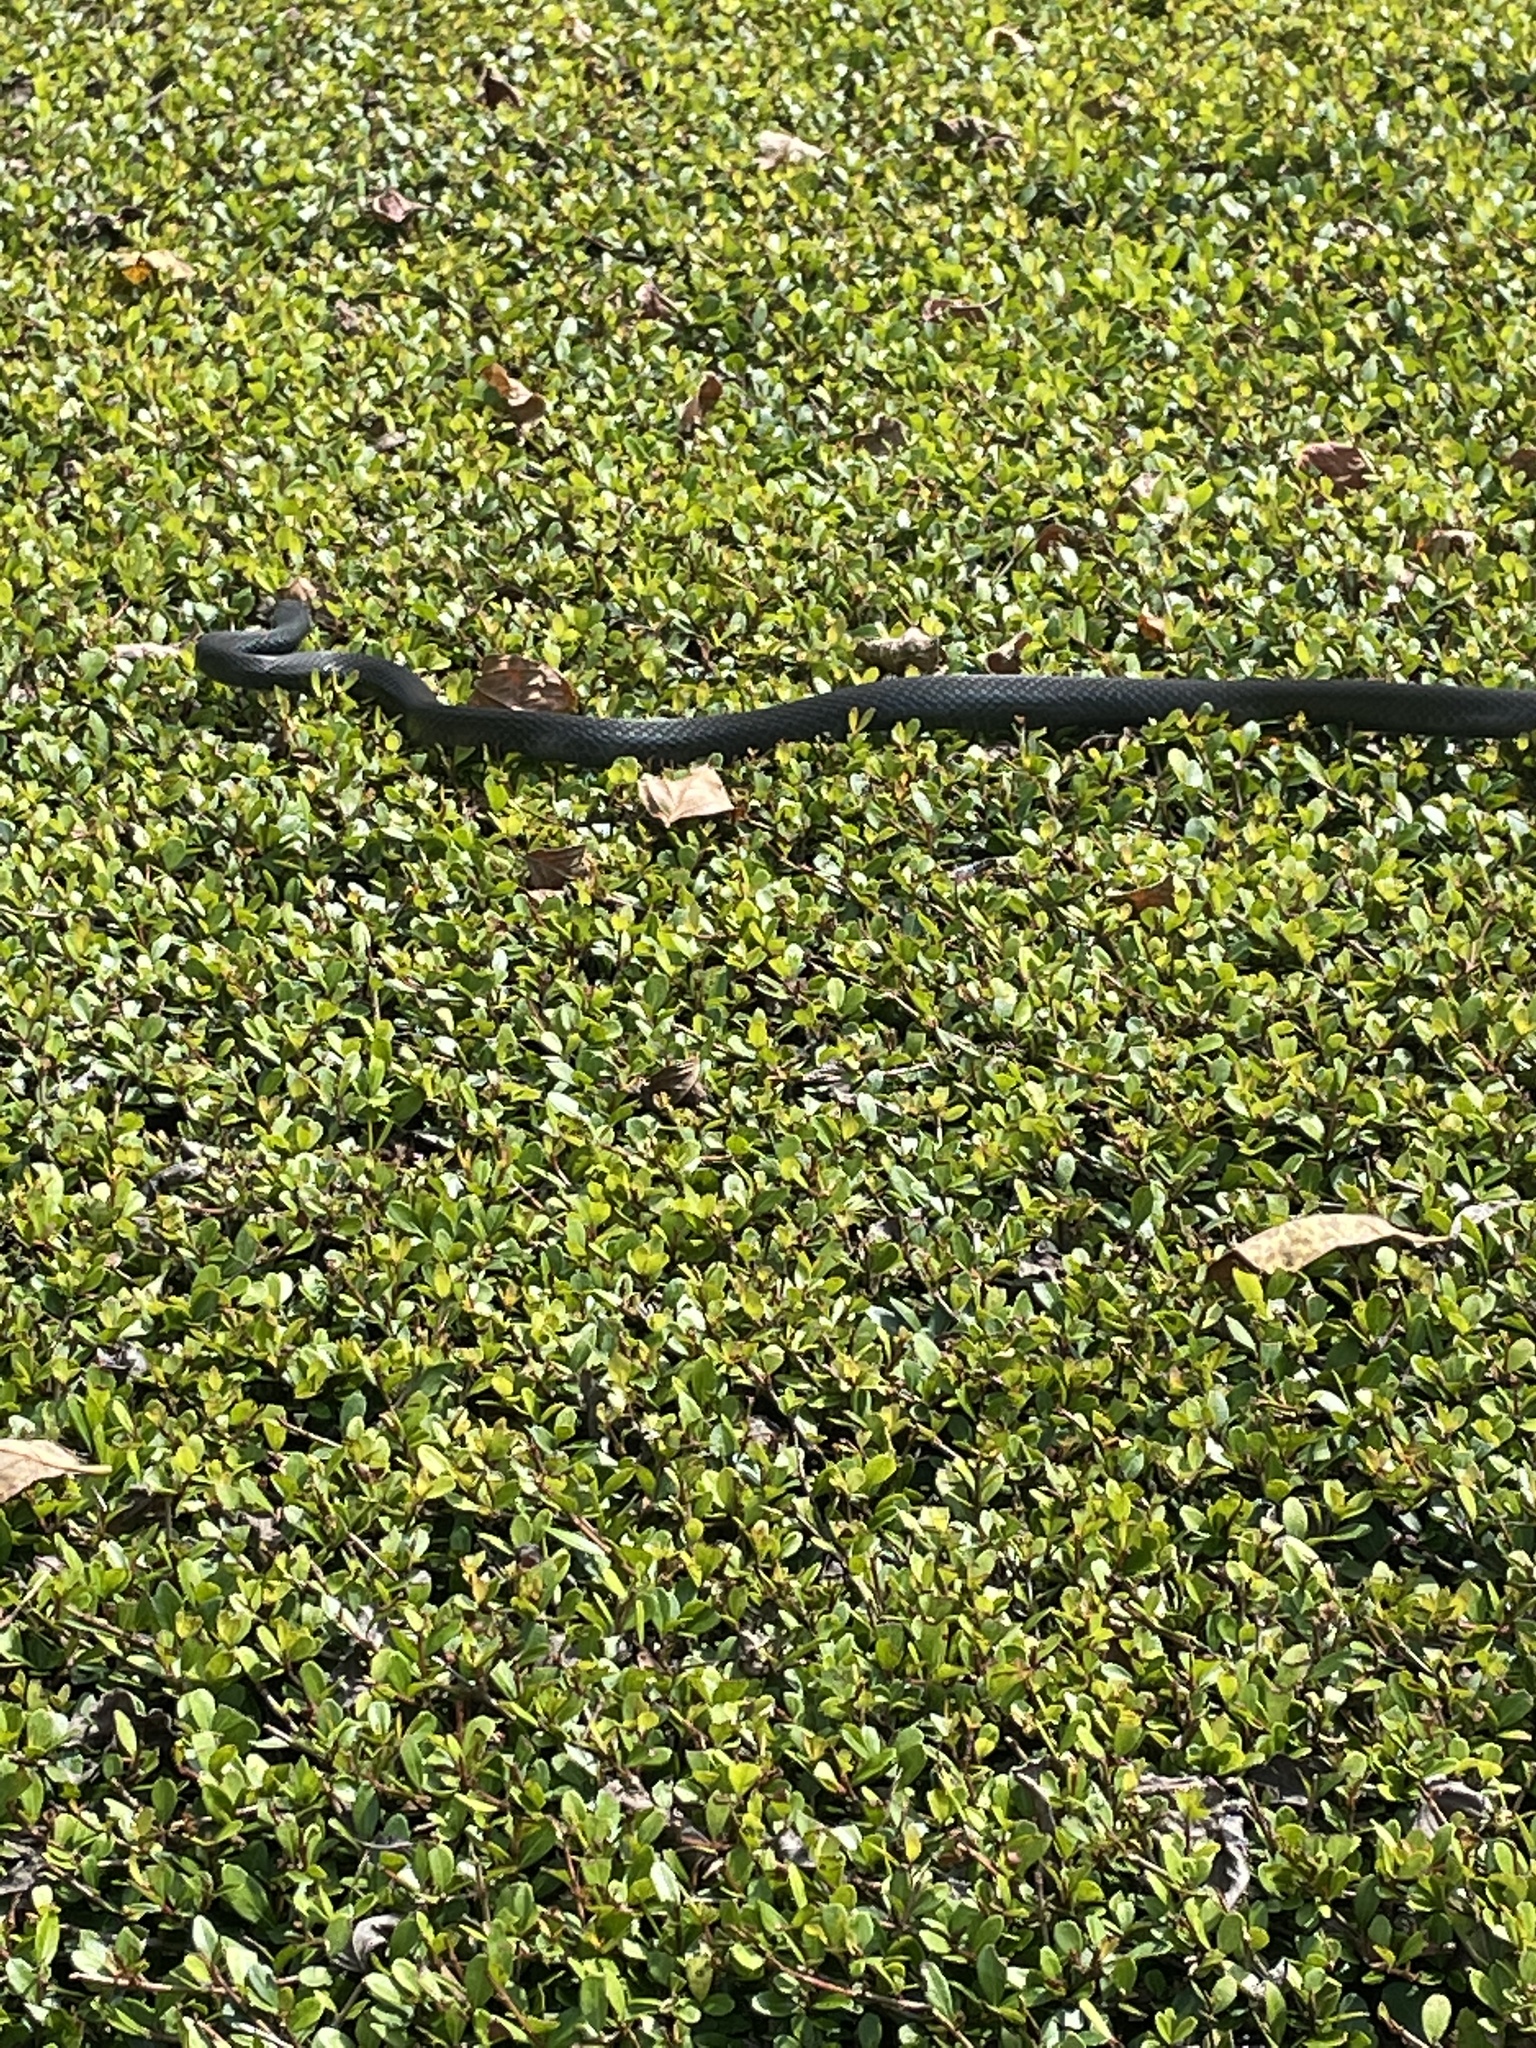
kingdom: Animalia
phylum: Chordata
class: Squamata
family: Colubridae
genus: Coluber
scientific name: Coluber constrictor
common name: Eastern racer
